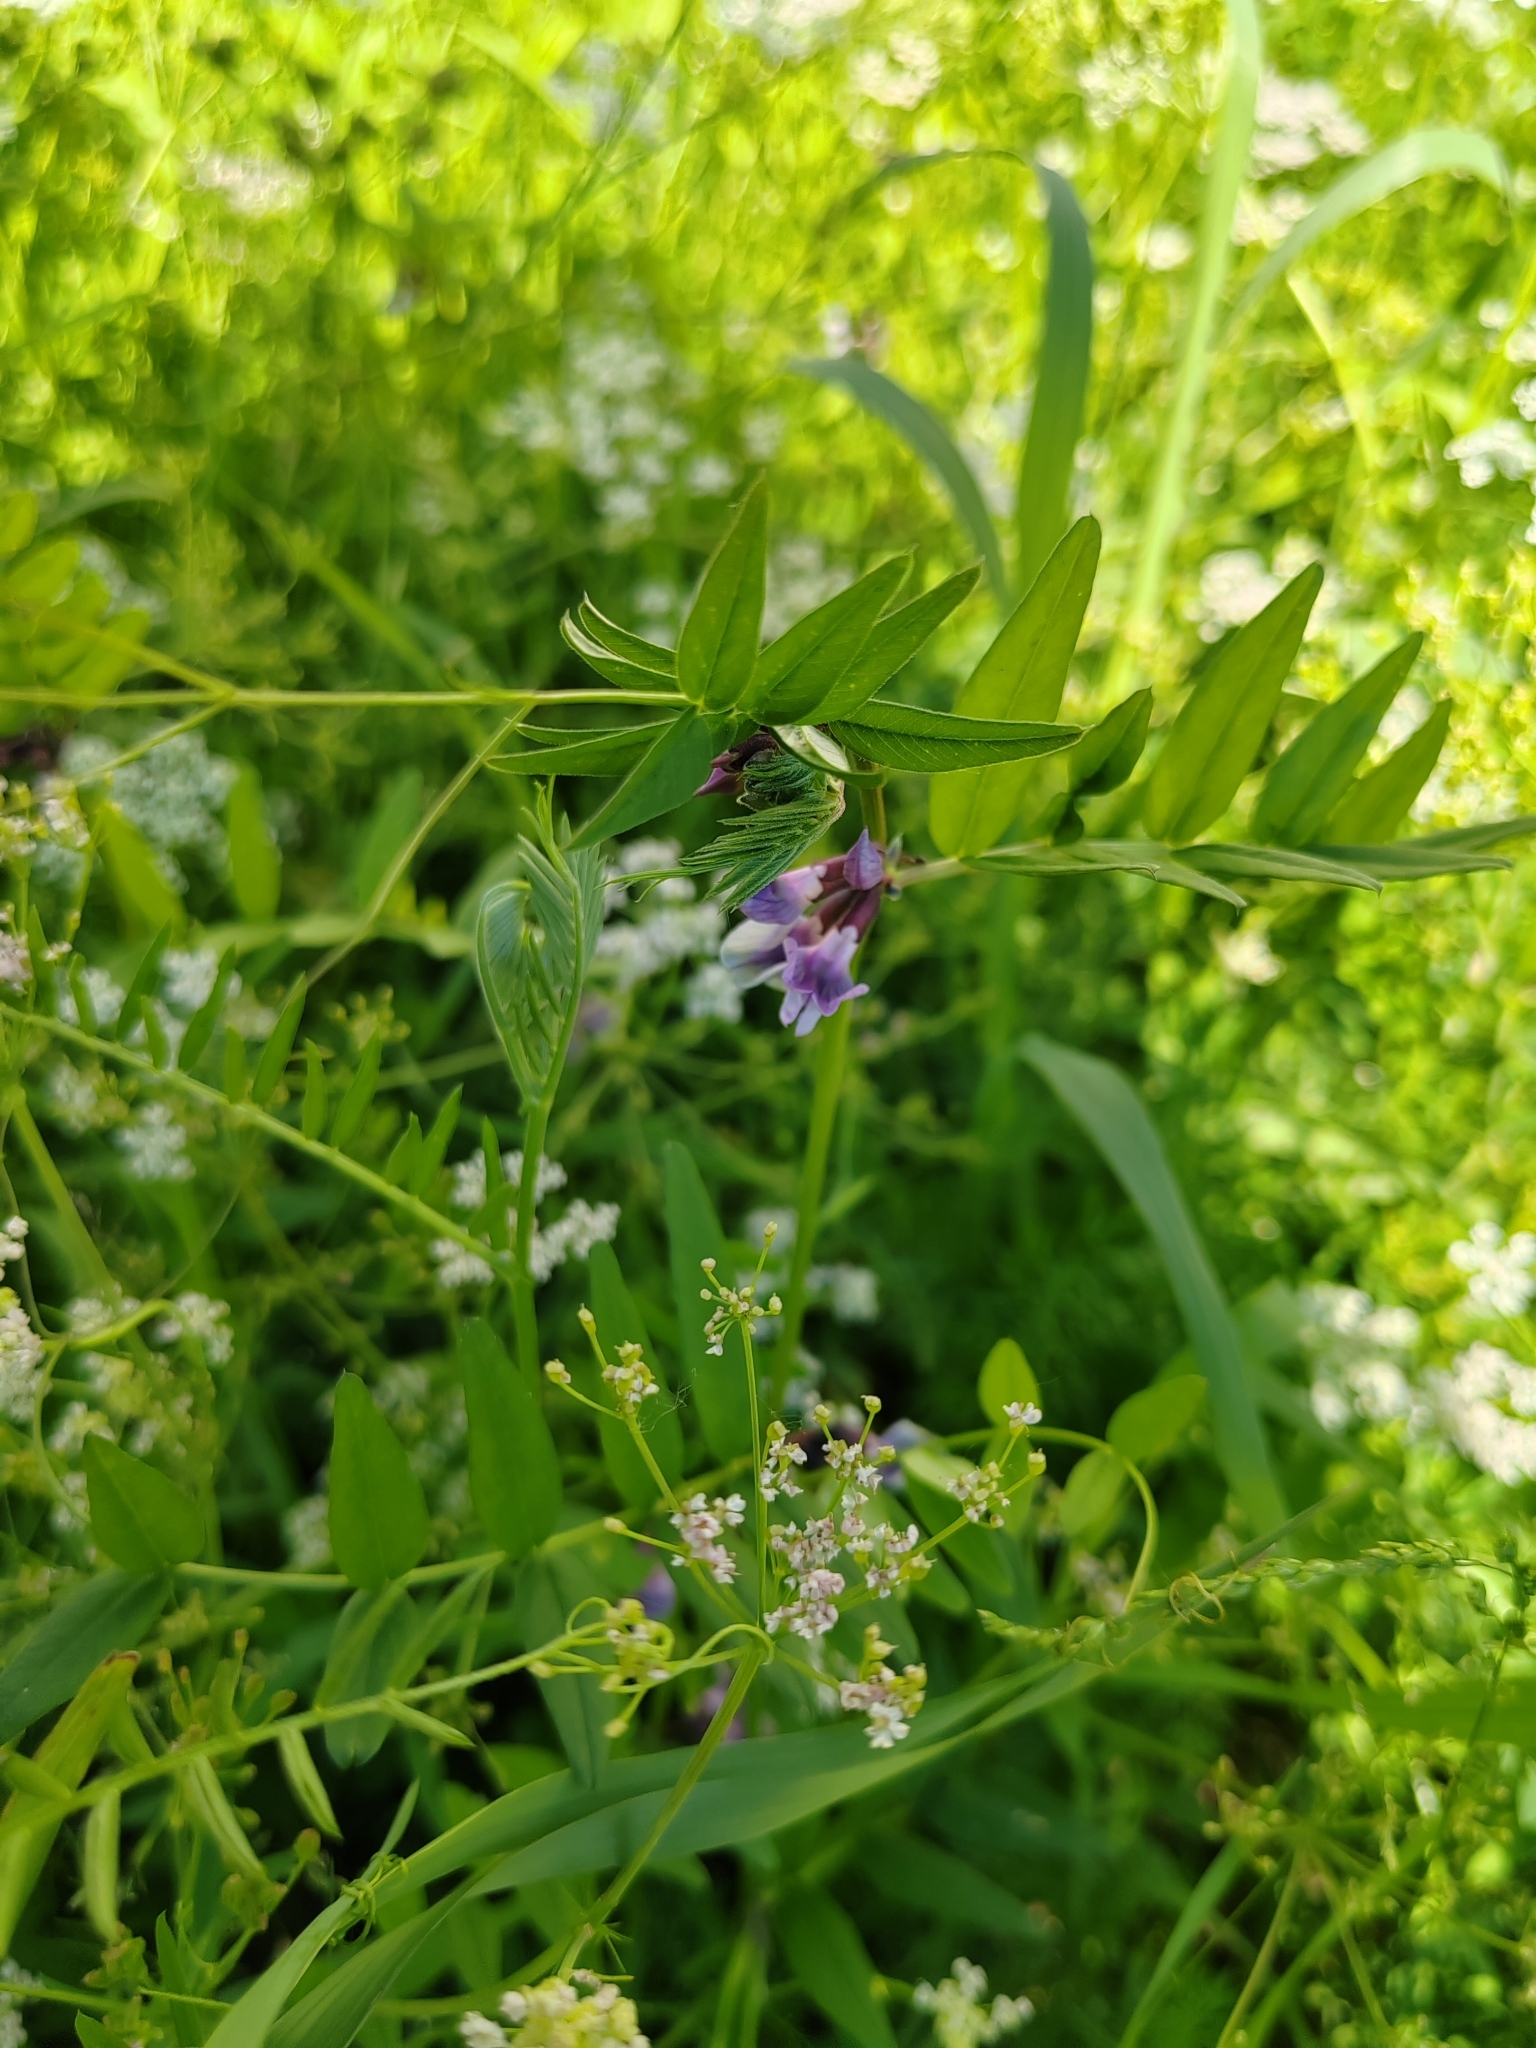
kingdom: Plantae
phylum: Tracheophyta
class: Magnoliopsida
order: Fabales
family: Fabaceae
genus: Vicia
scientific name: Vicia sepium
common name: Bush vetch
